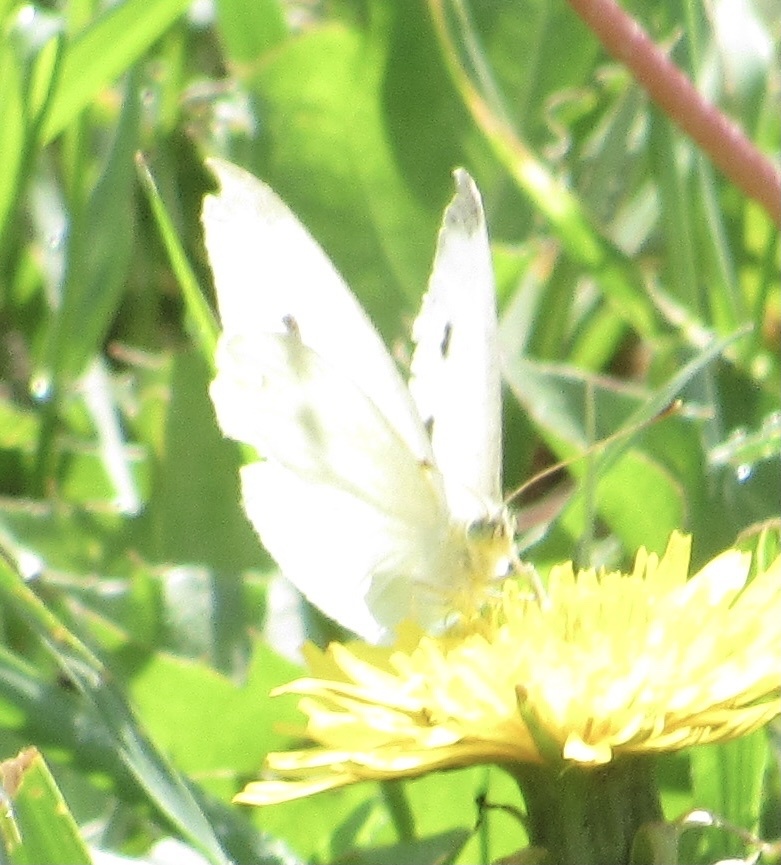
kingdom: Animalia
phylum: Arthropoda
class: Insecta
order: Lepidoptera
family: Pieridae
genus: Pieris
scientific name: Pieris rapae
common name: Small white
